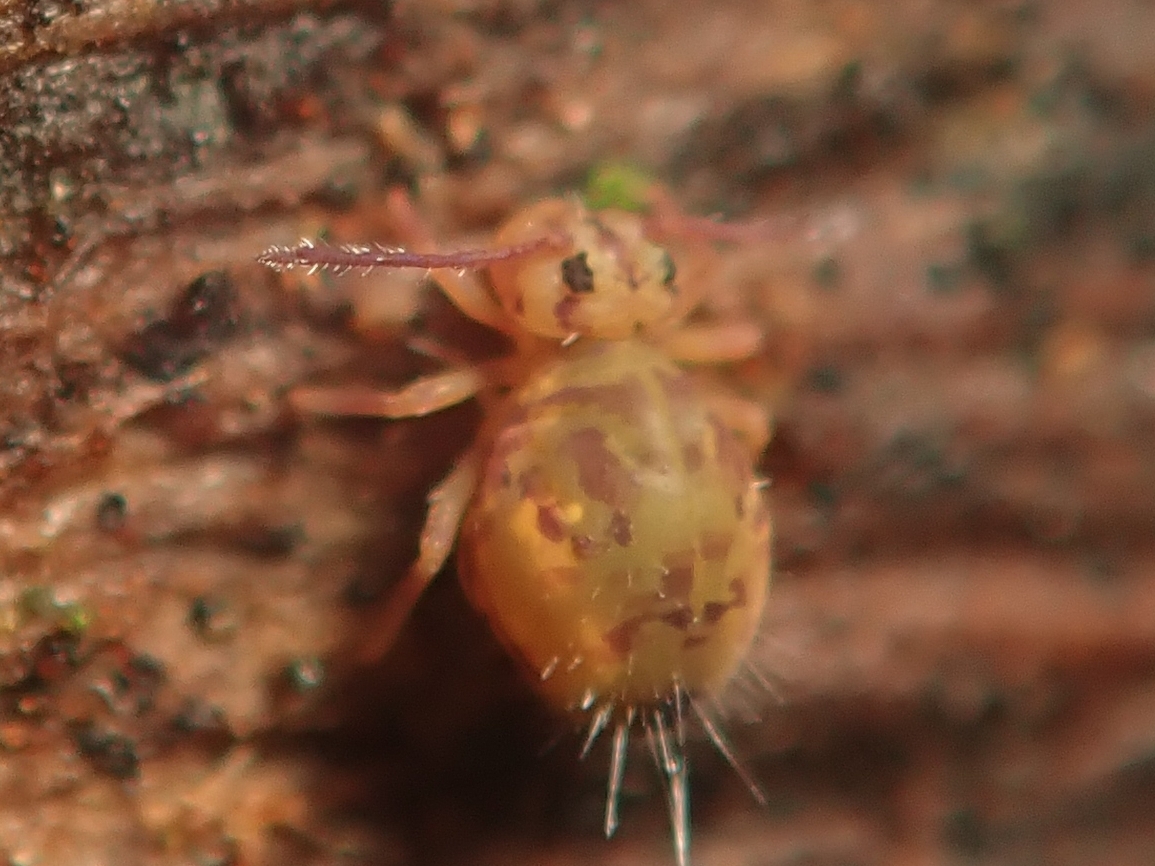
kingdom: Animalia
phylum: Arthropoda
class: Collembola
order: Symphypleona
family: Dicyrtomidae
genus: Dicyrtomina
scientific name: Dicyrtomina ornata
